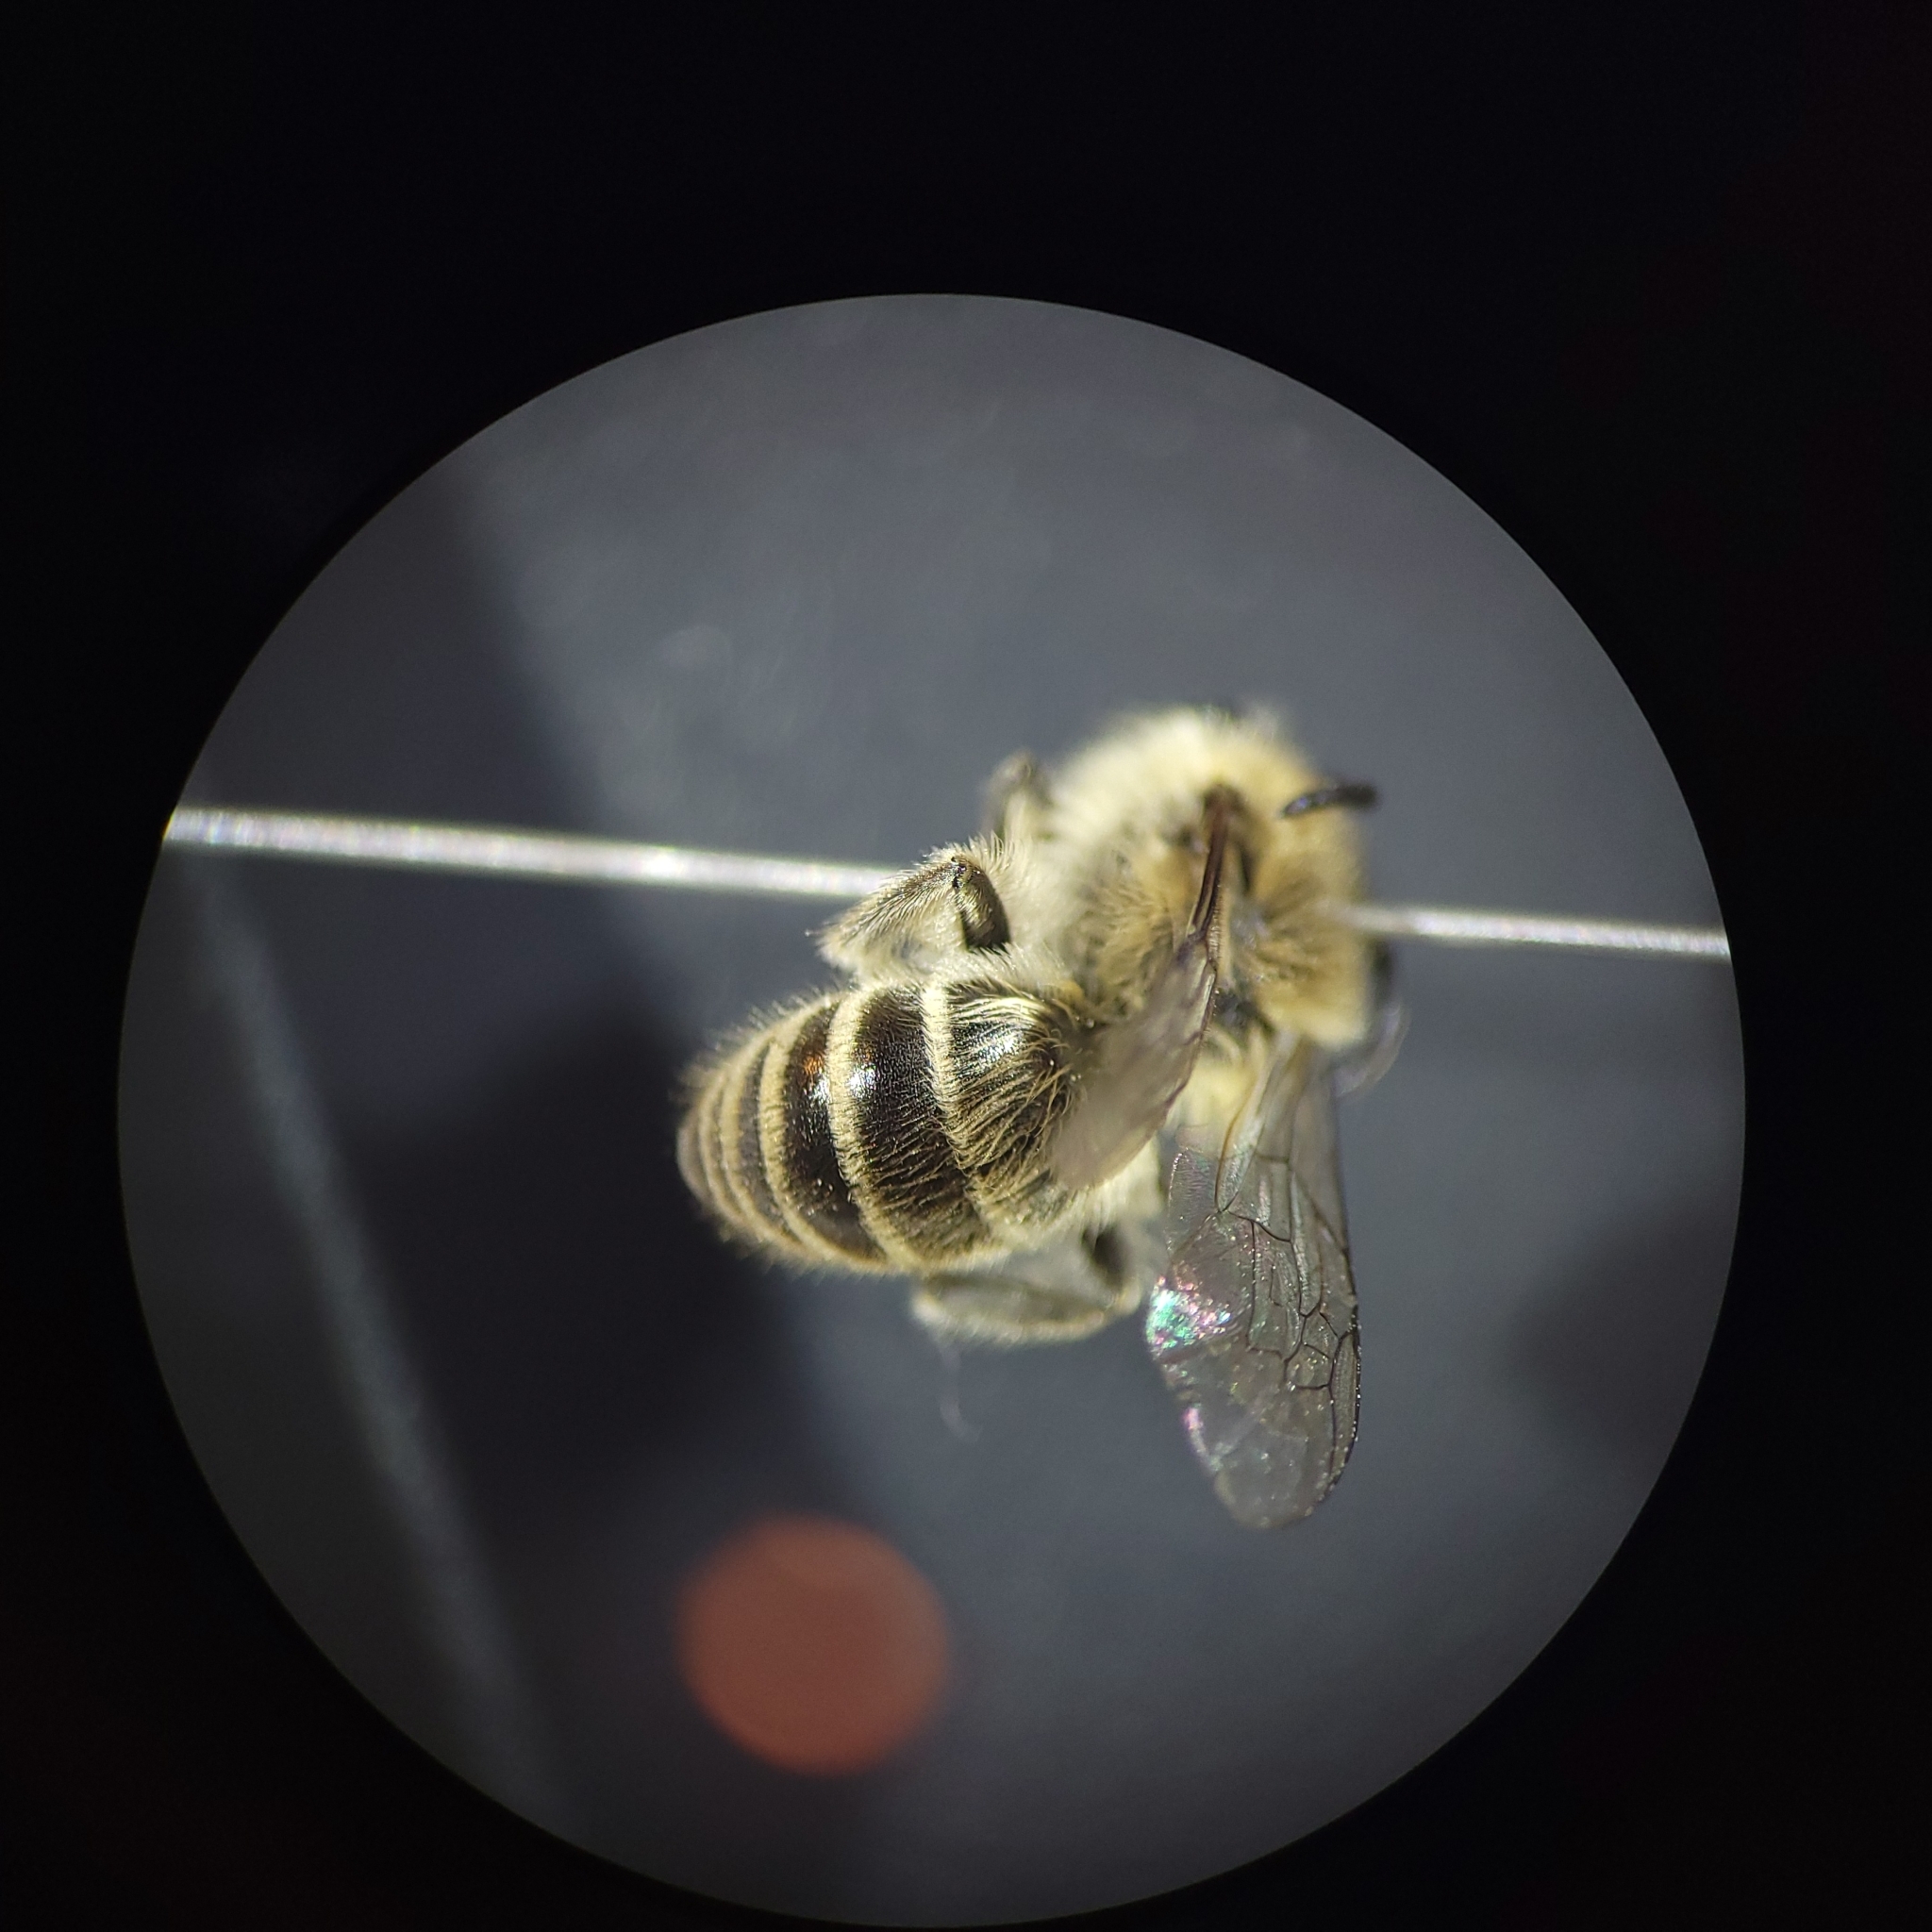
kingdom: Animalia
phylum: Arthropoda
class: Insecta
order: Hymenoptera
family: Colletidae
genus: Colletes
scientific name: Colletes inaequalis
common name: Unequal cellophane bee
